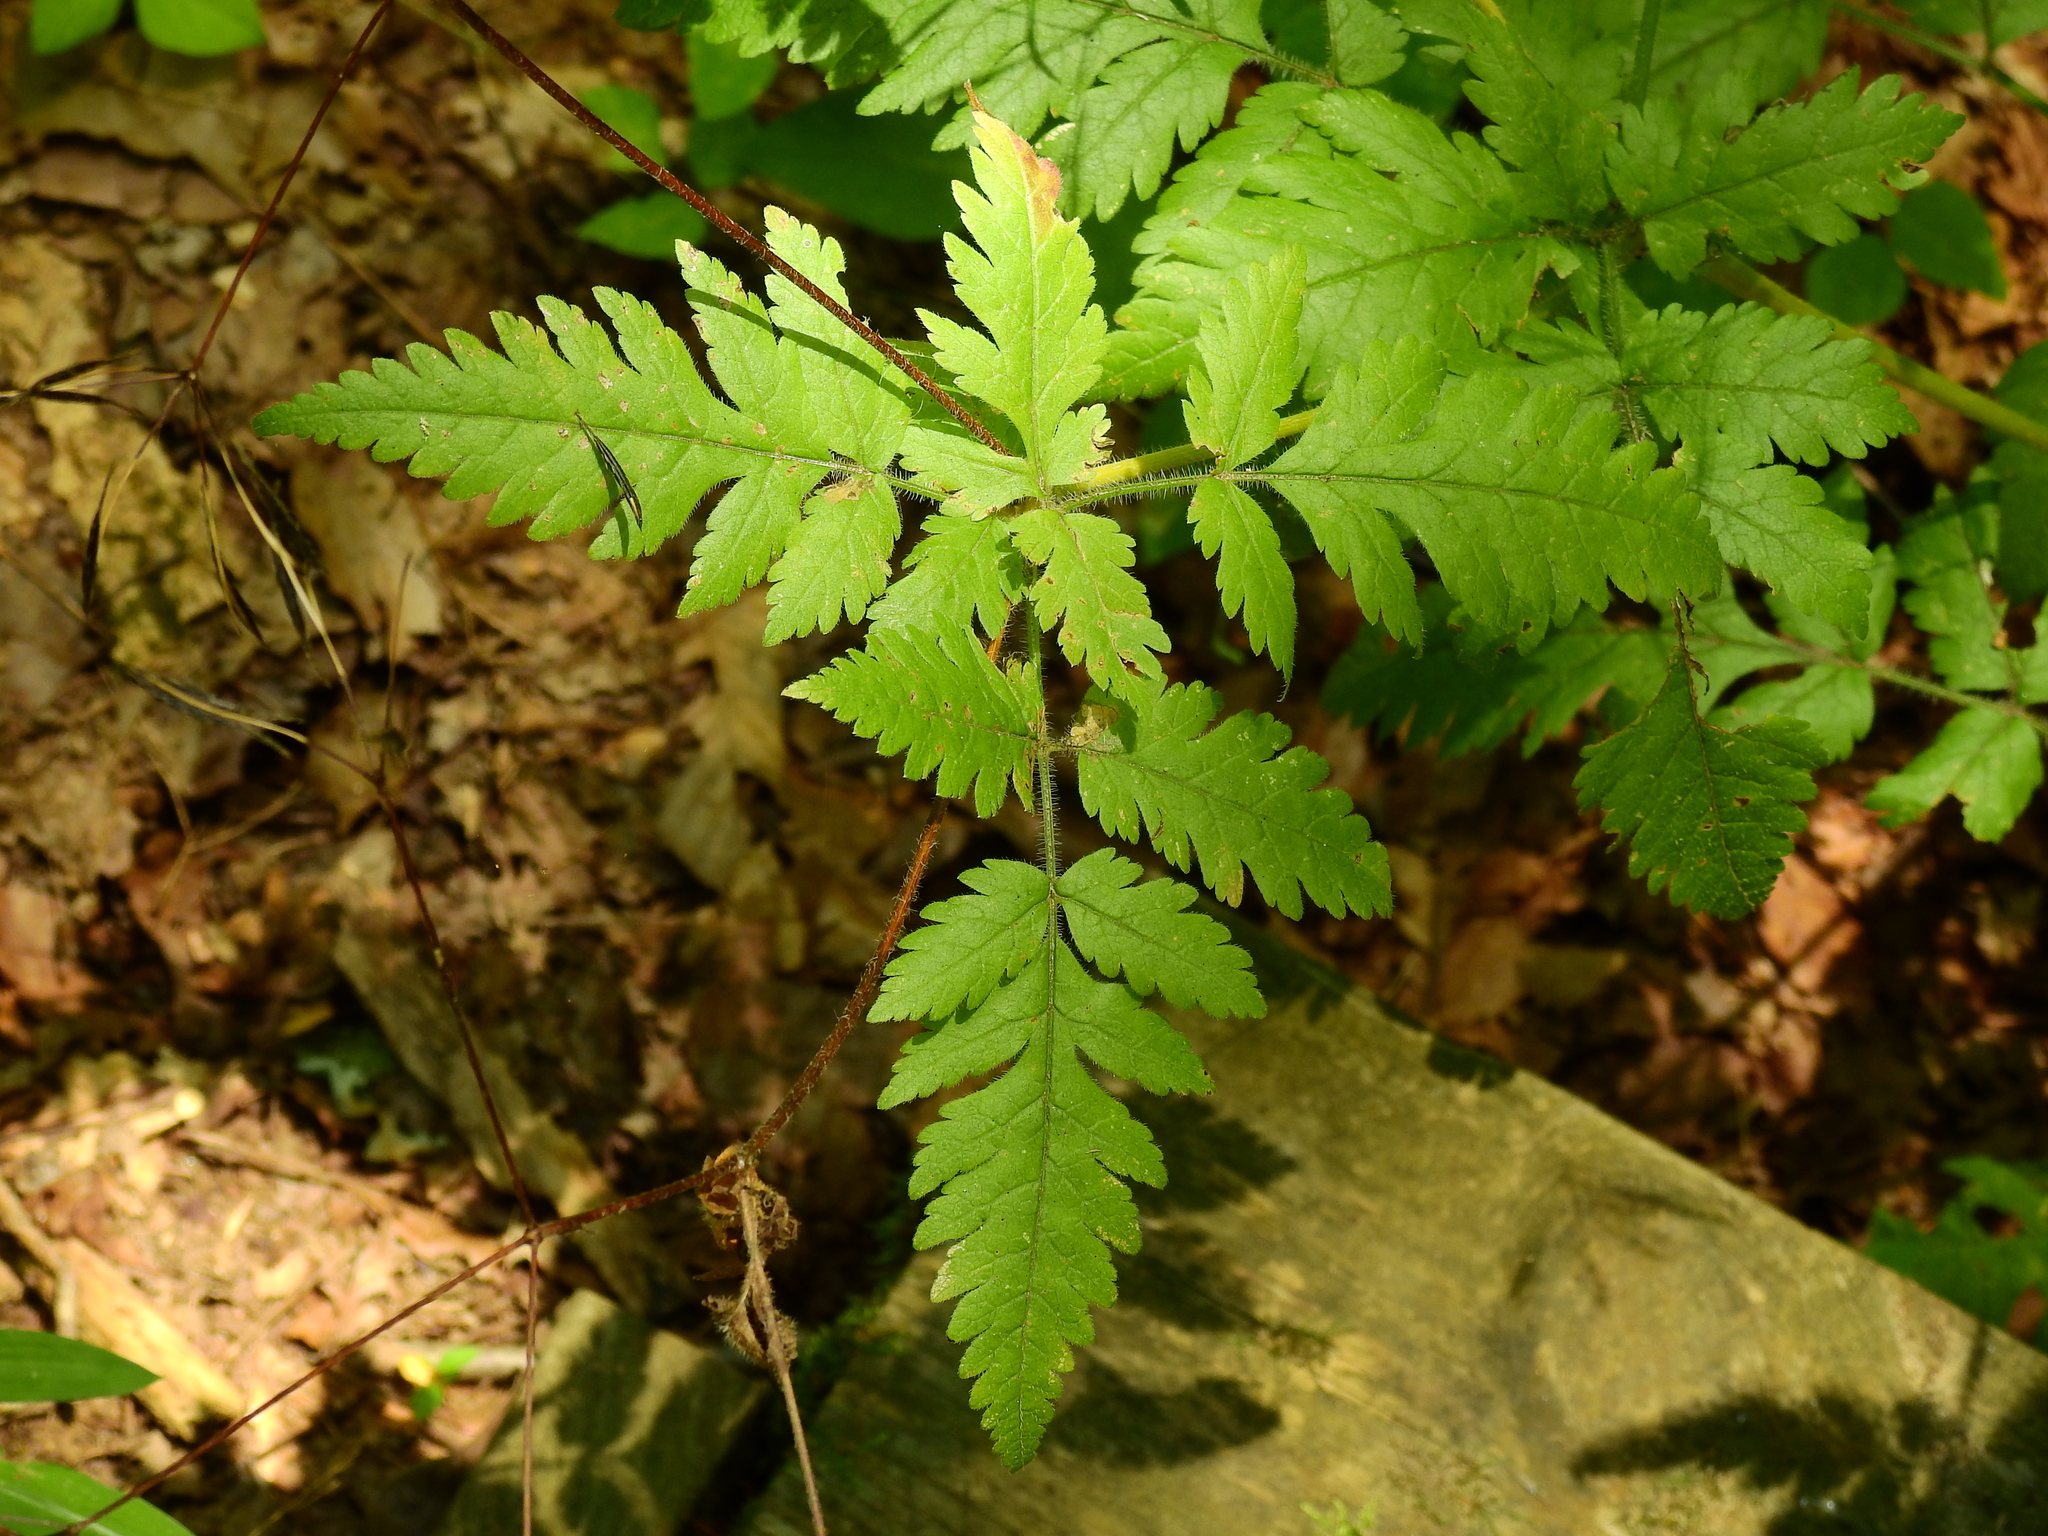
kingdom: Plantae
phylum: Tracheophyta
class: Magnoliopsida
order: Apiales
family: Apiaceae
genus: Osmorhiza
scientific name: Osmorhiza claytonii
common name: Hairy sweet cicely
